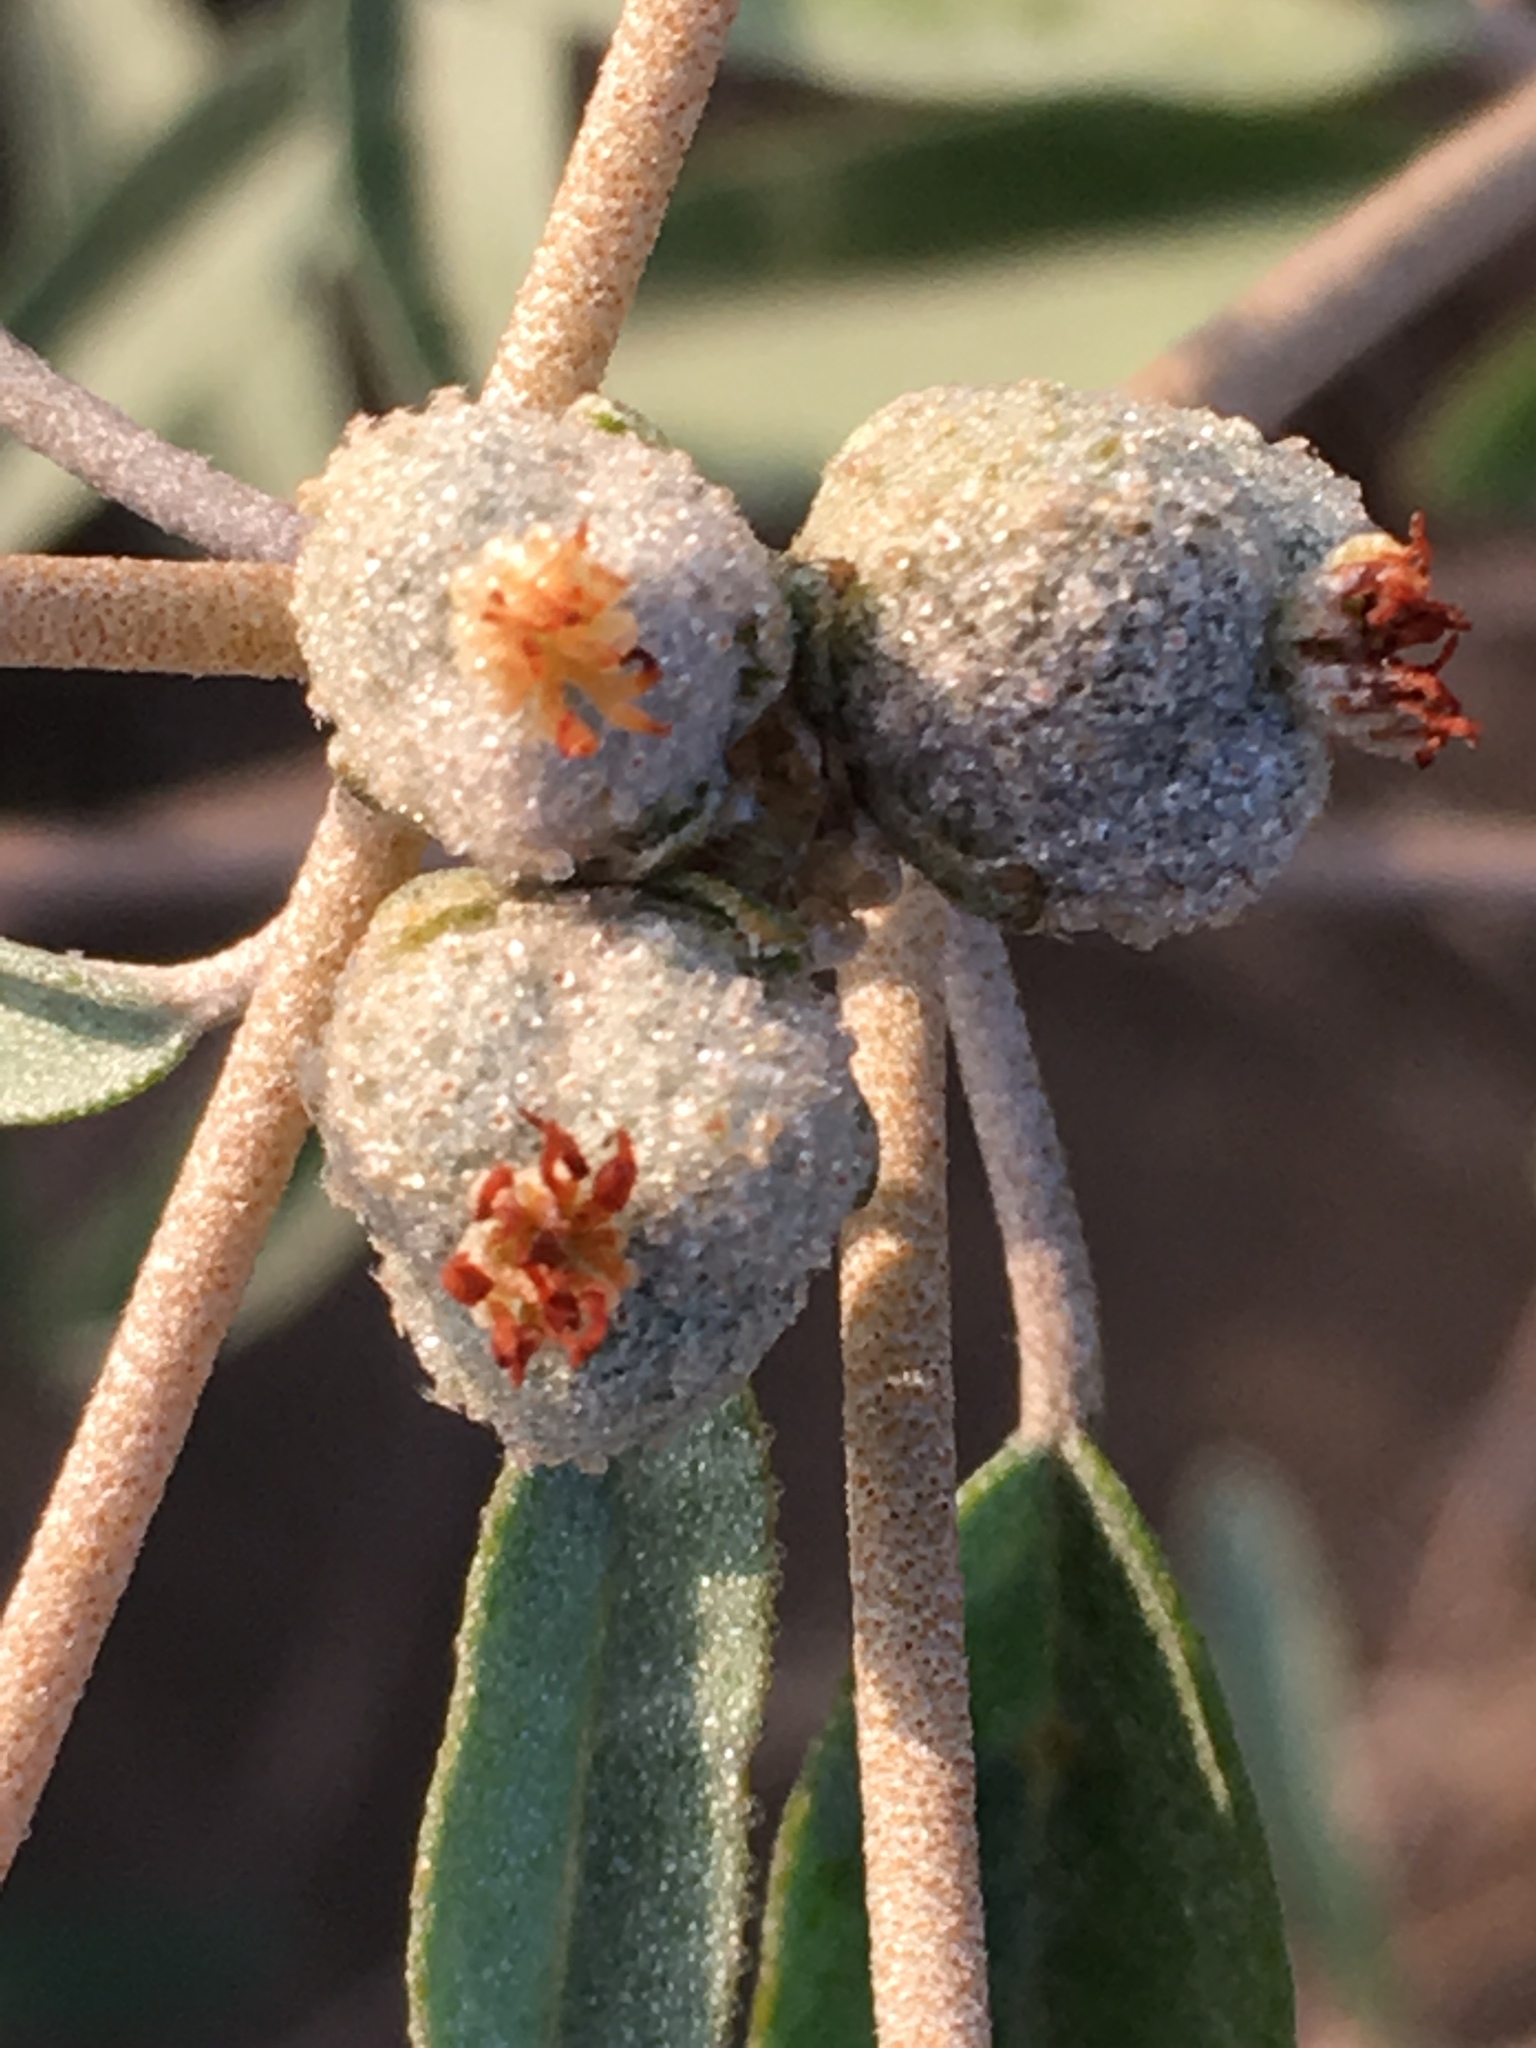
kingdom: Plantae
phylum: Tracheophyta
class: Magnoliopsida
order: Malpighiales
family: Euphorbiaceae
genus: Croton
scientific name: Croton californicus
